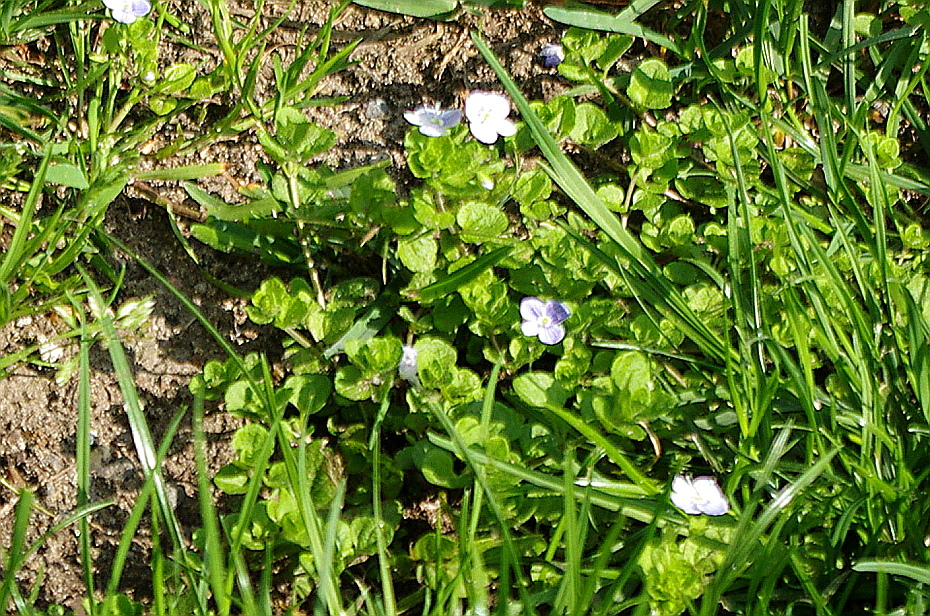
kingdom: Plantae
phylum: Tracheophyta
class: Magnoliopsida
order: Lamiales
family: Plantaginaceae
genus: Veronica
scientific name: Veronica filiformis
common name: Slender speedwell
